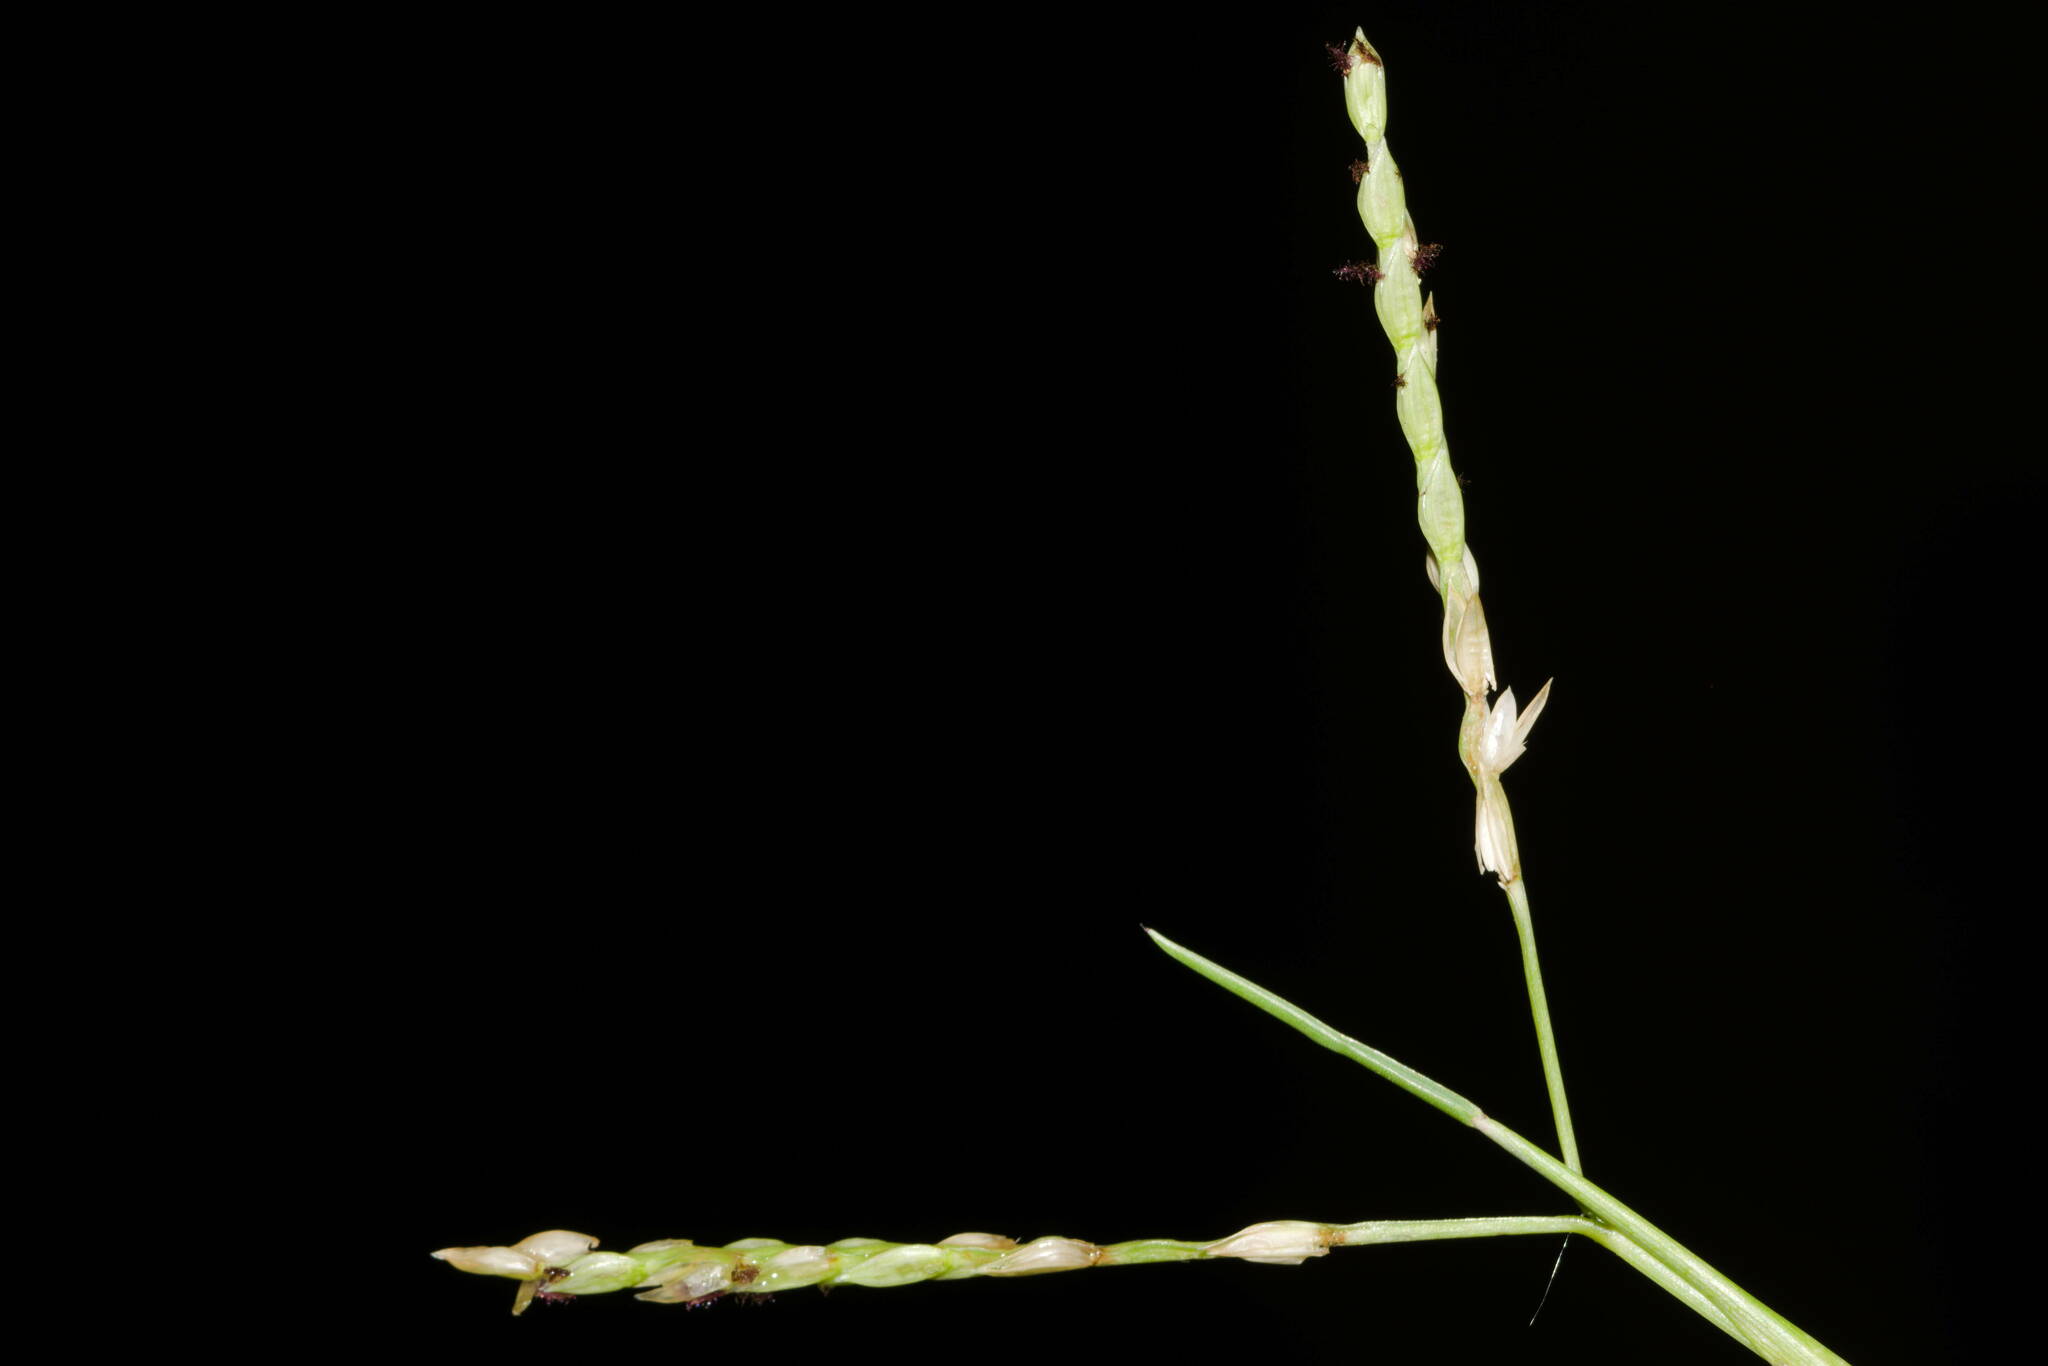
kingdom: Plantae
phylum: Tracheophyta
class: Liliopsida
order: Poales
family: Poaceae
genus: Paspalum
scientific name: Paspalum distichum
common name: Knotgrass
